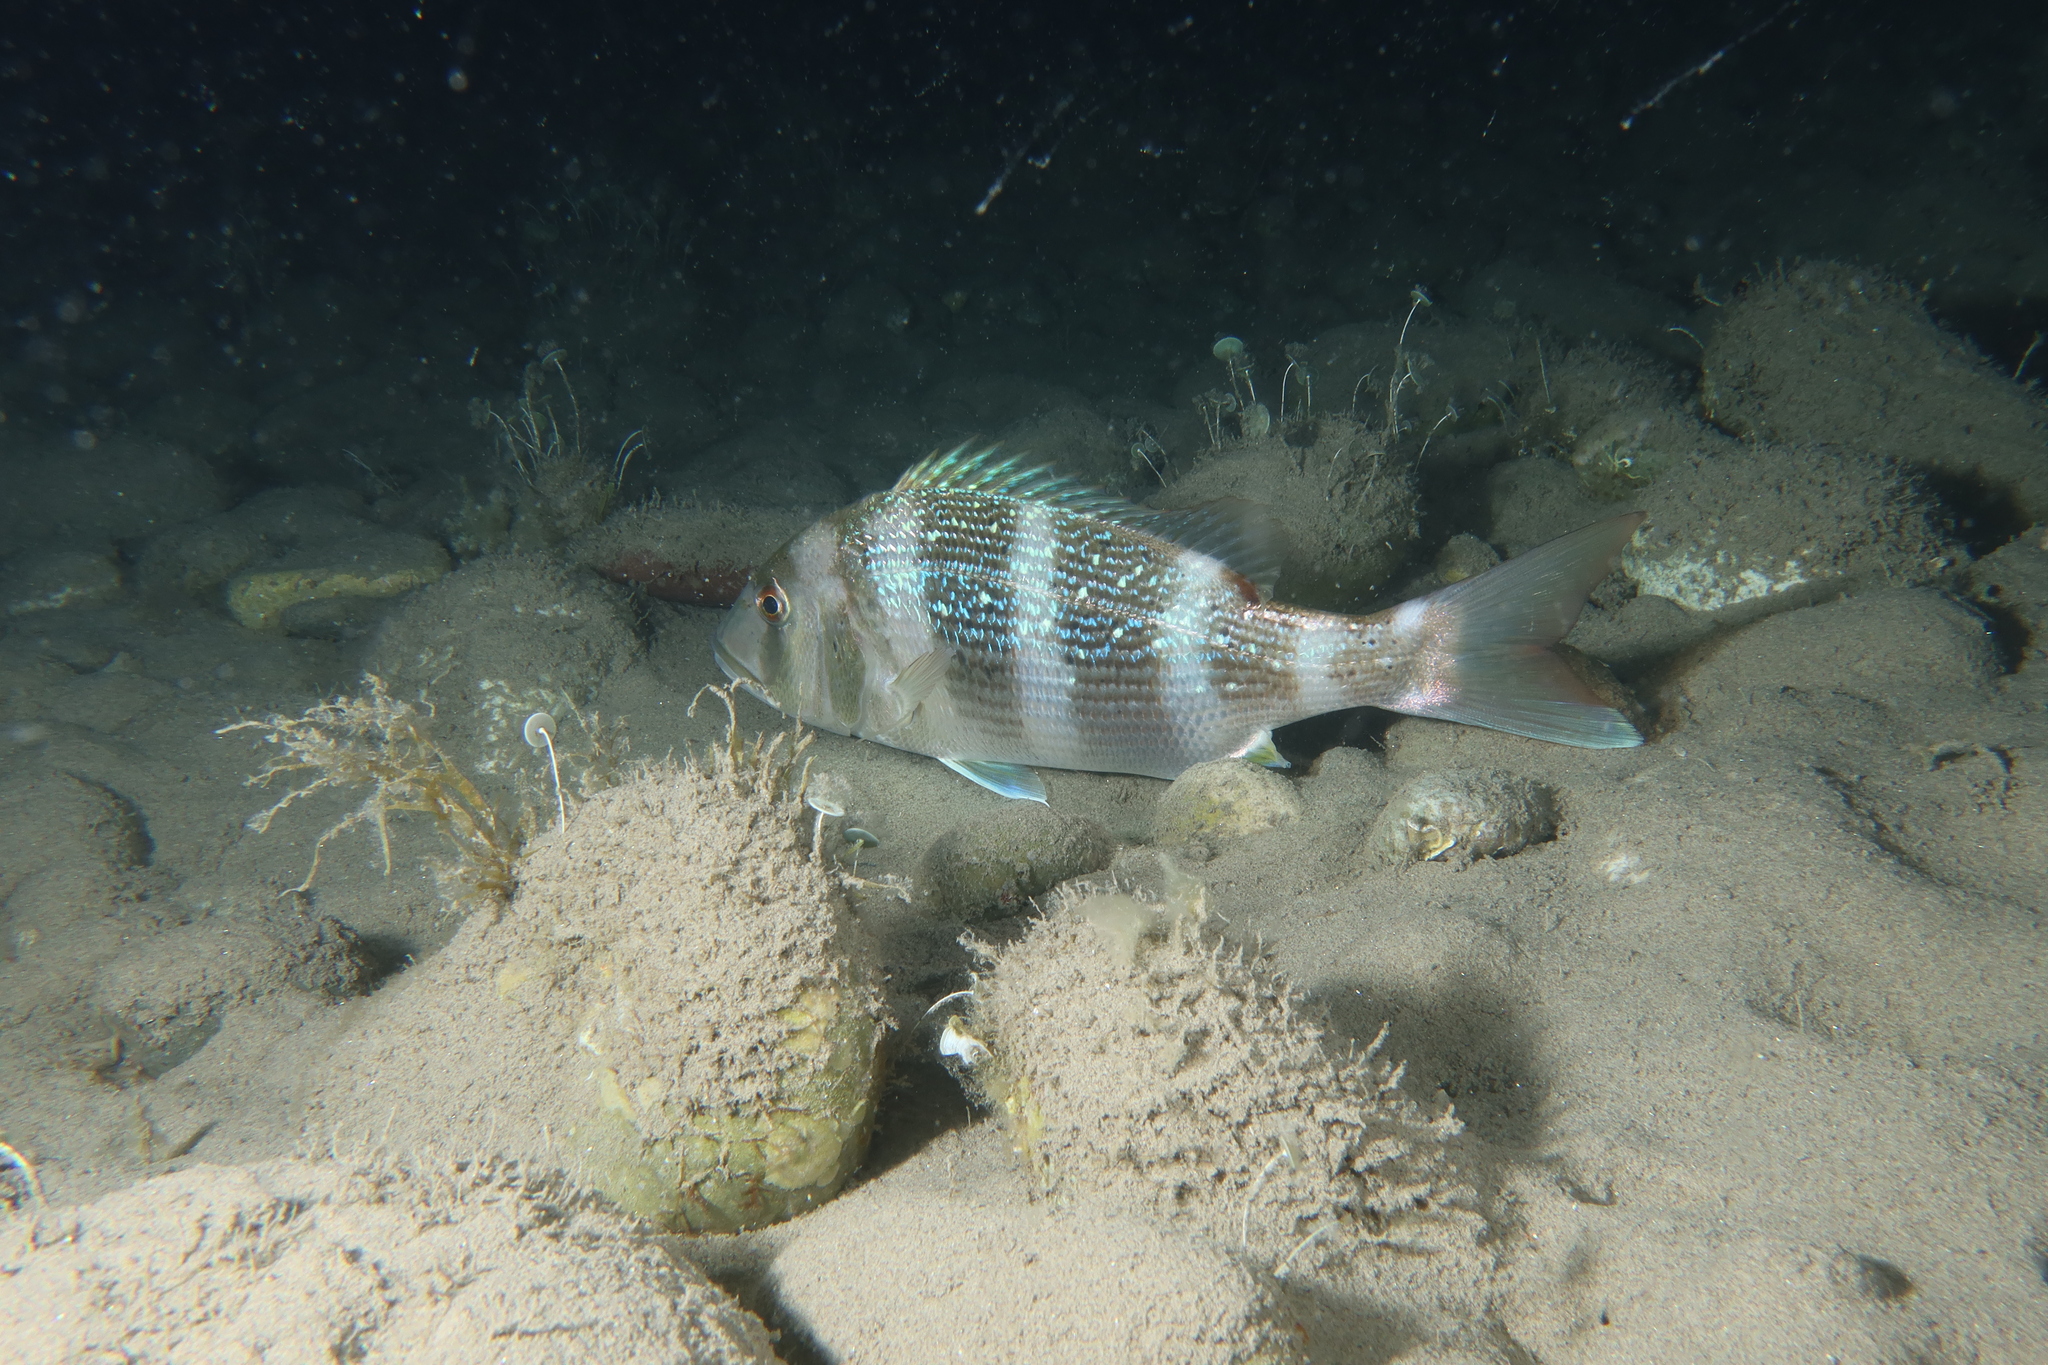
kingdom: Animalia
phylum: Chordata
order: Perciformes
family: Sparidae
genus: Dentex
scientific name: Dentex dentex
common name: Dentex
